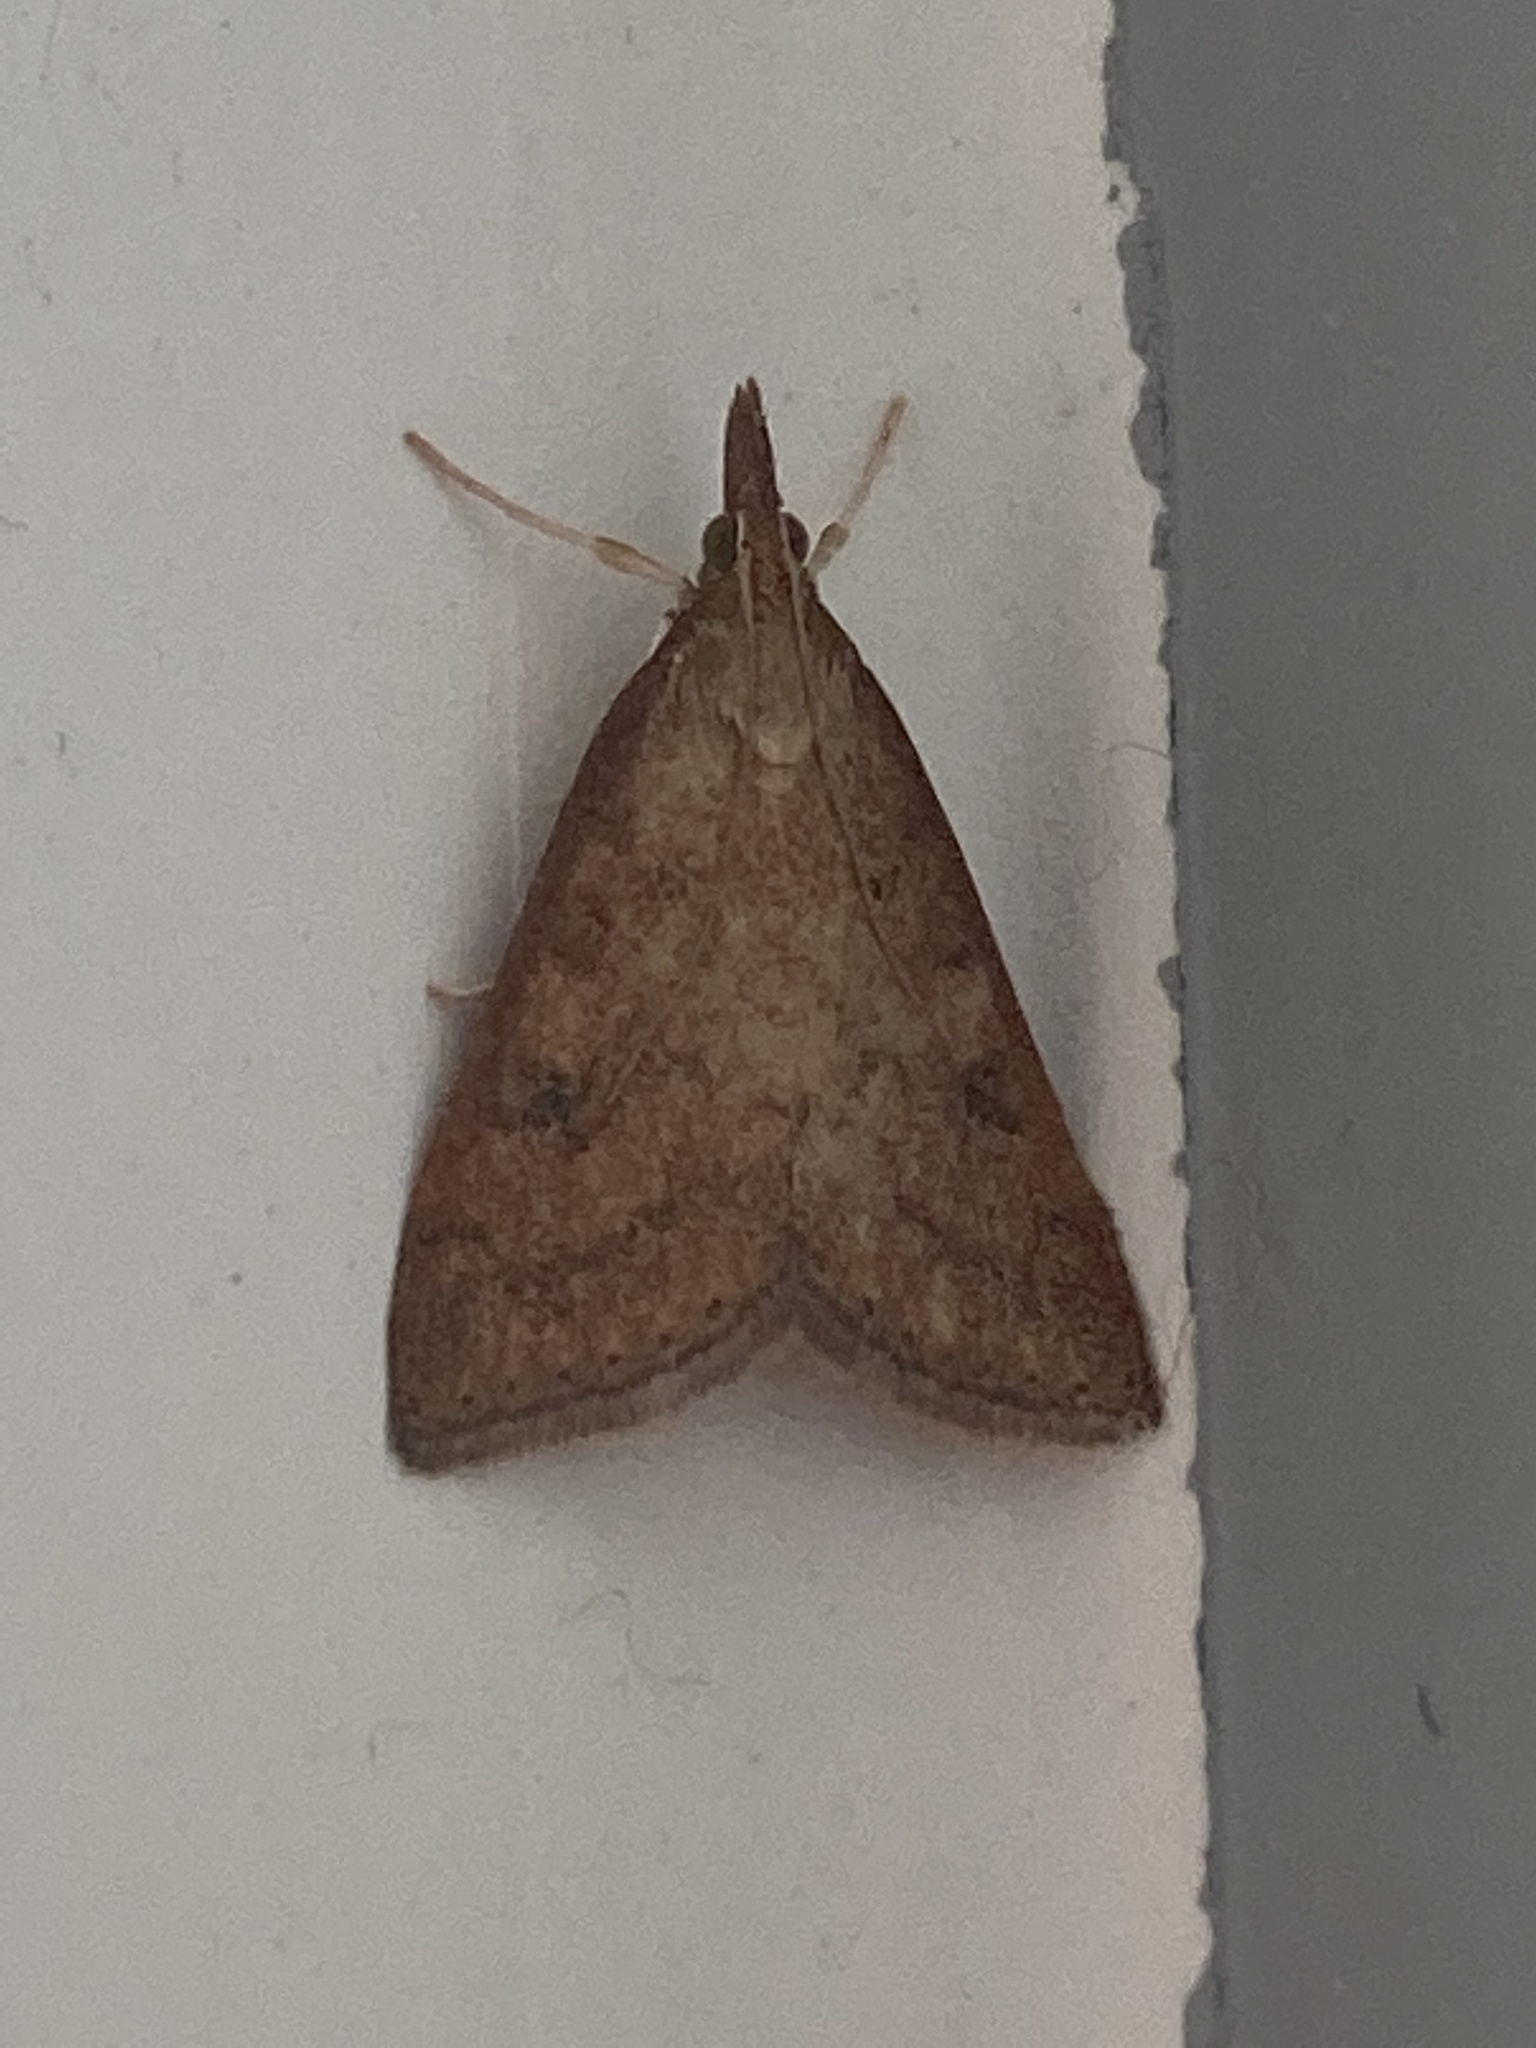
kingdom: Animalia
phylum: Arthropoda
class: Insecta
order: Lepidoptera
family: Crambidae
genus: Udea
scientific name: Udea rubigalis
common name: Celery leaftier moth
